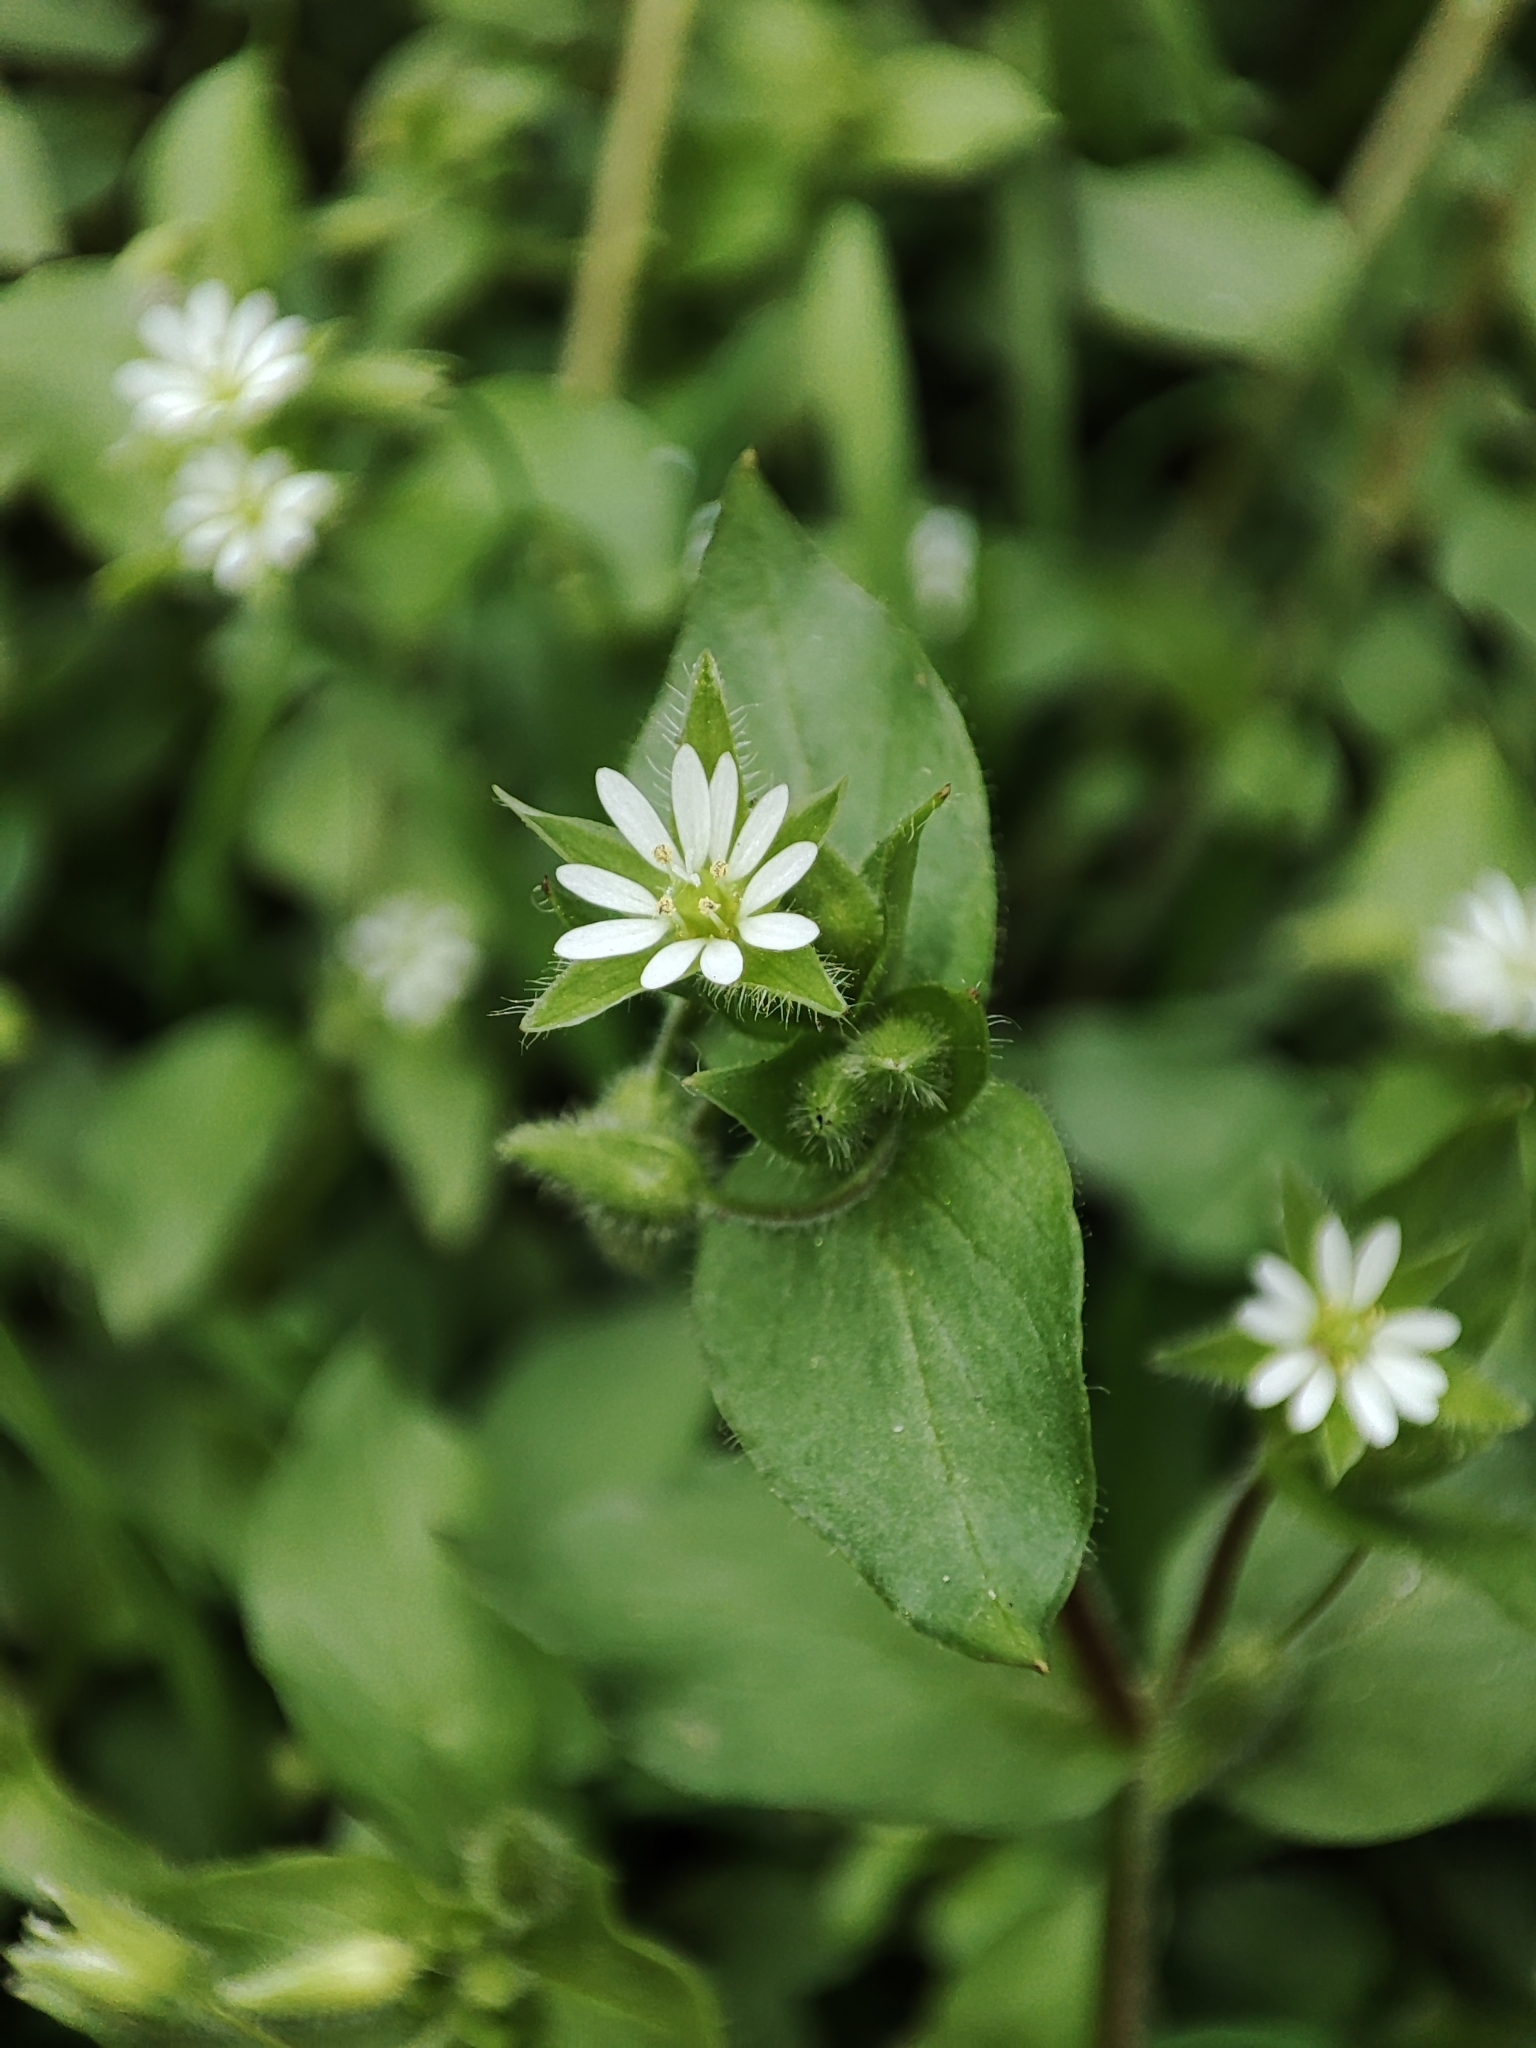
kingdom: Plantae
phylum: Tracheophyta
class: Magnoliopsida
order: Caryophyllales
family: Caryophyllaceae
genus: Stellaria
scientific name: Stellaria media
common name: Common chickweed
